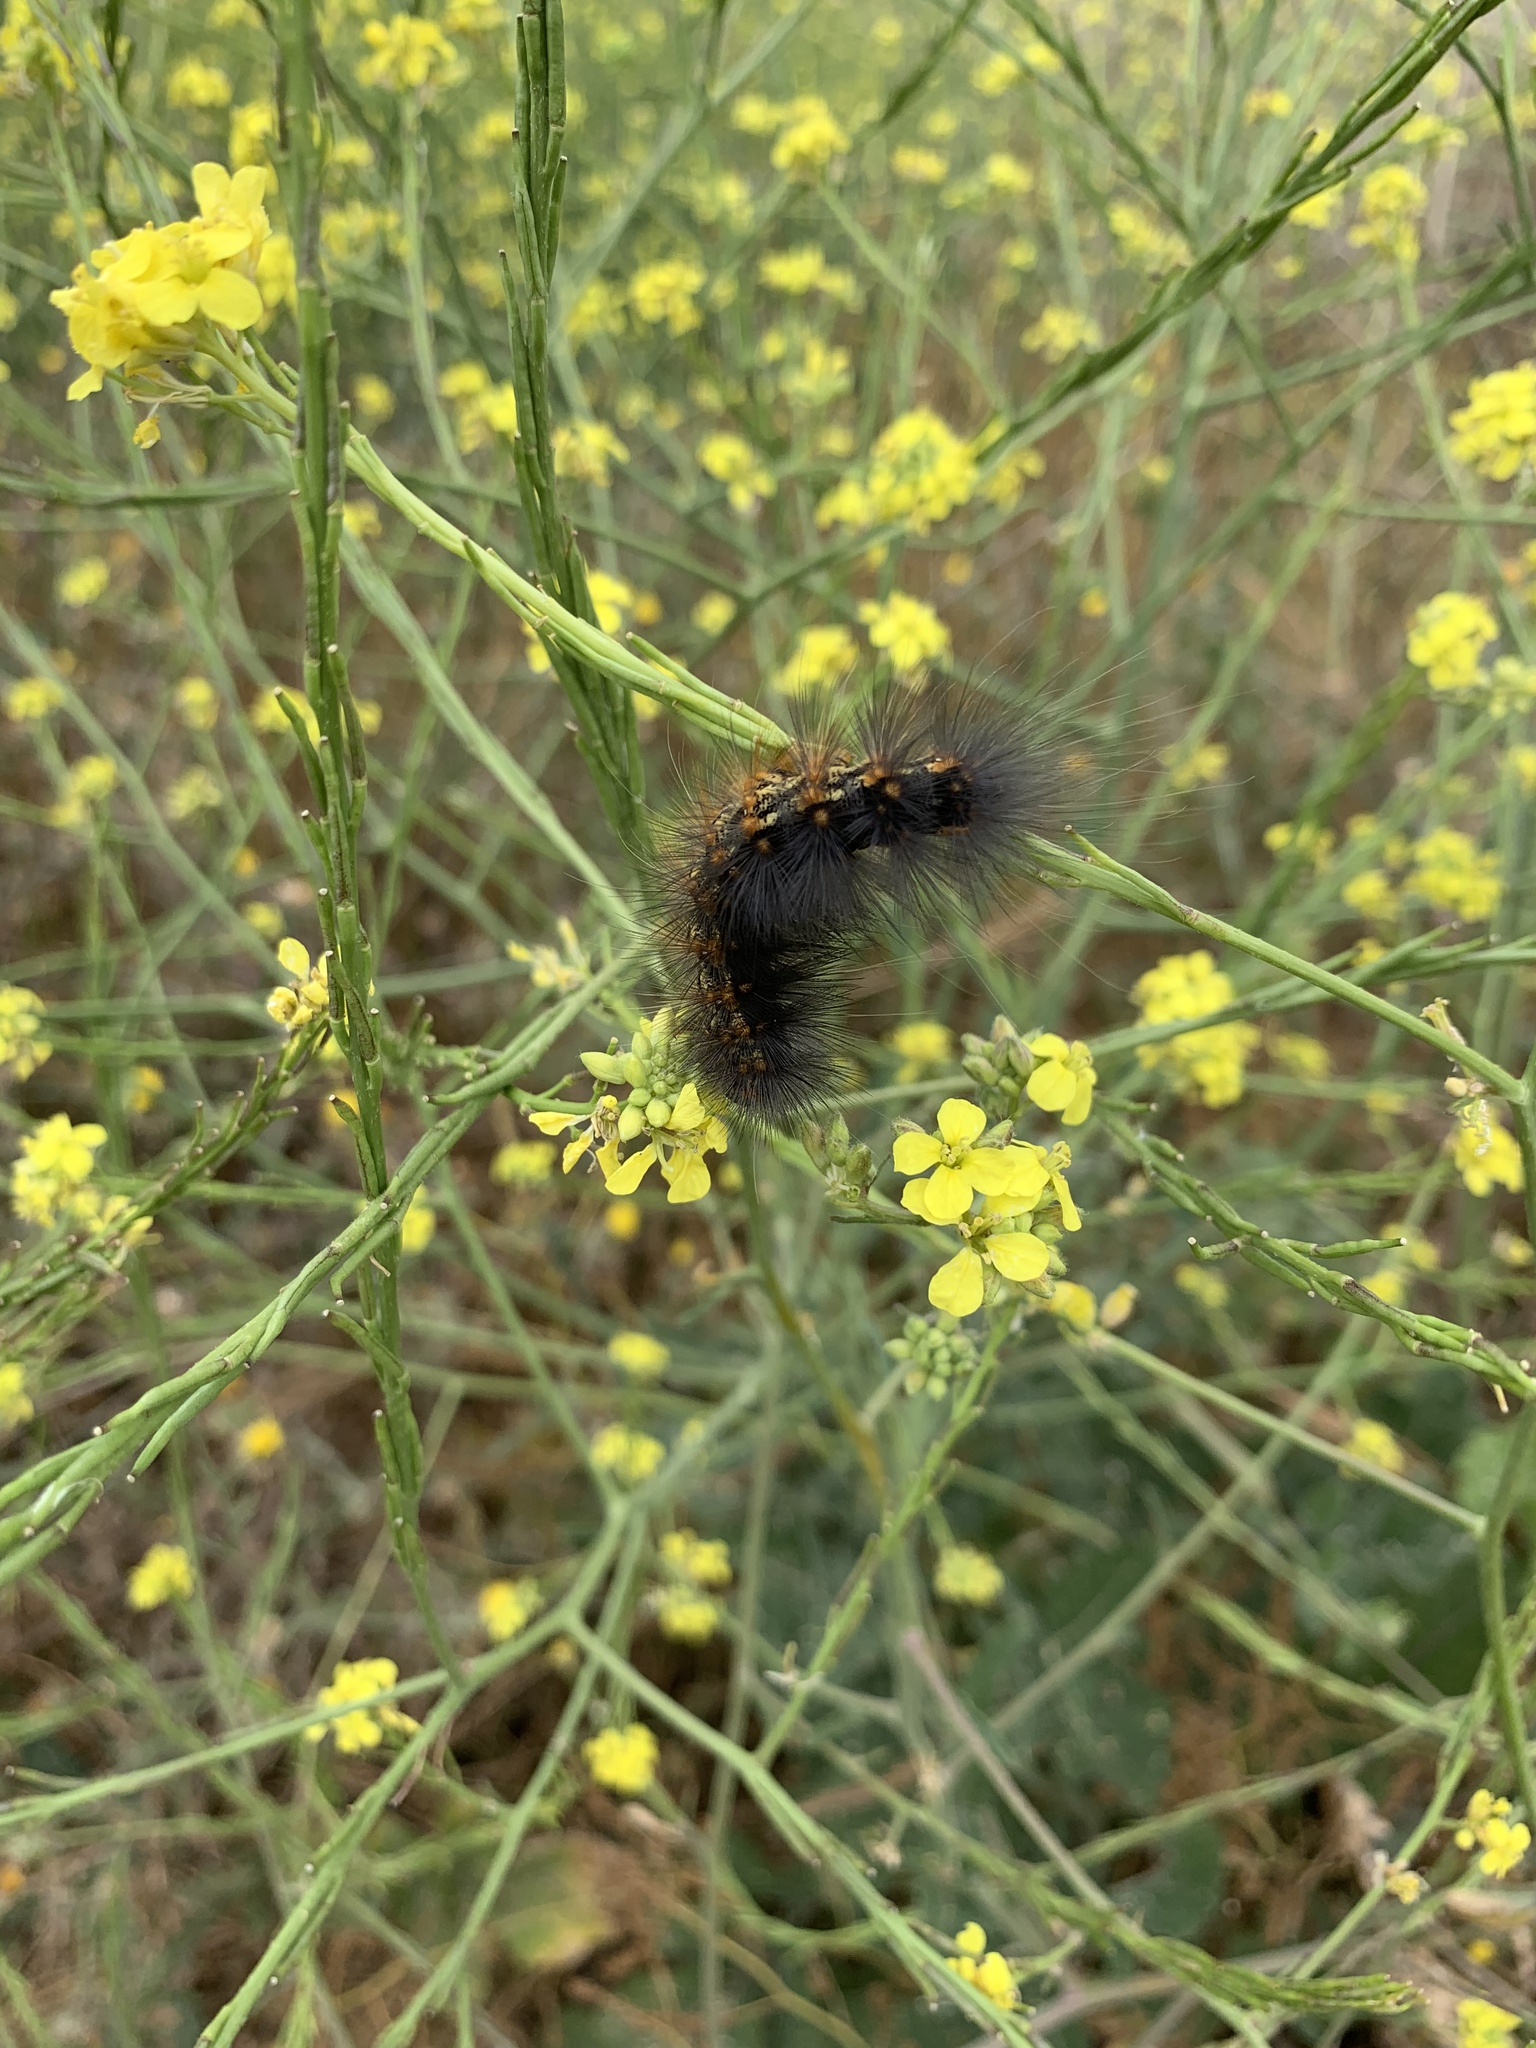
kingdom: Animalia
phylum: Arthropoda
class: Insecta
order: Lepidoptera
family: Erebidae
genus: Estigmene
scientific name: Estigmene acrea
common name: Salt marsh moth
